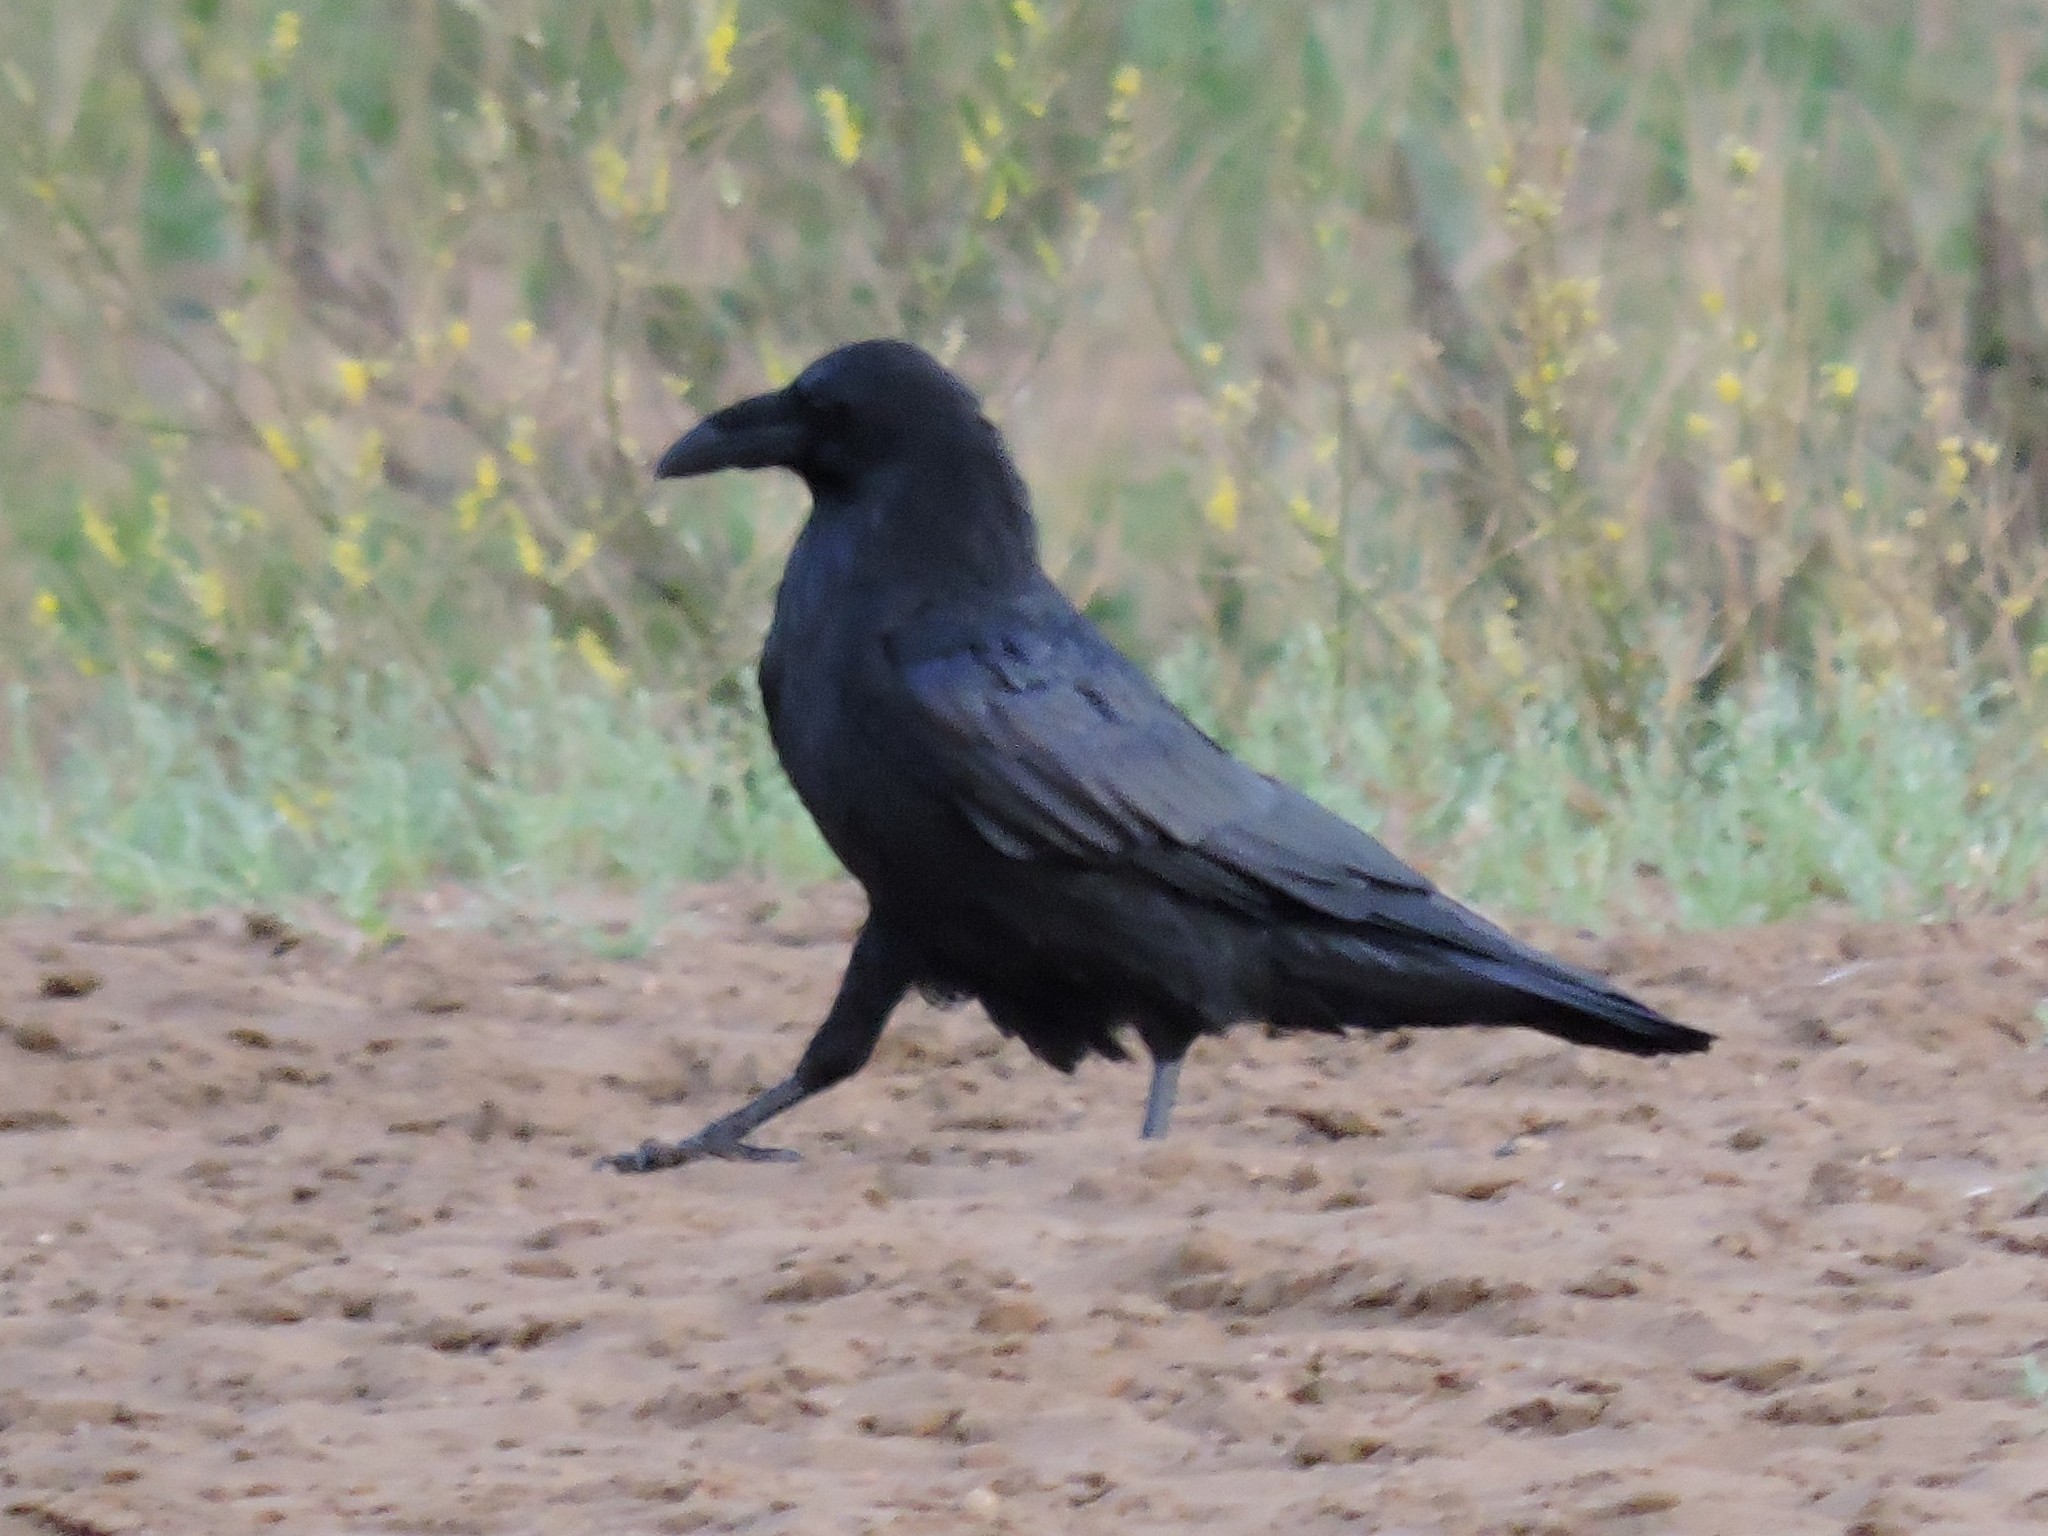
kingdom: Animalia
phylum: Chordata
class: Aves
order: Passeriformes
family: Corvidae
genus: Corvus
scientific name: Corvus corax
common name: Common raven
